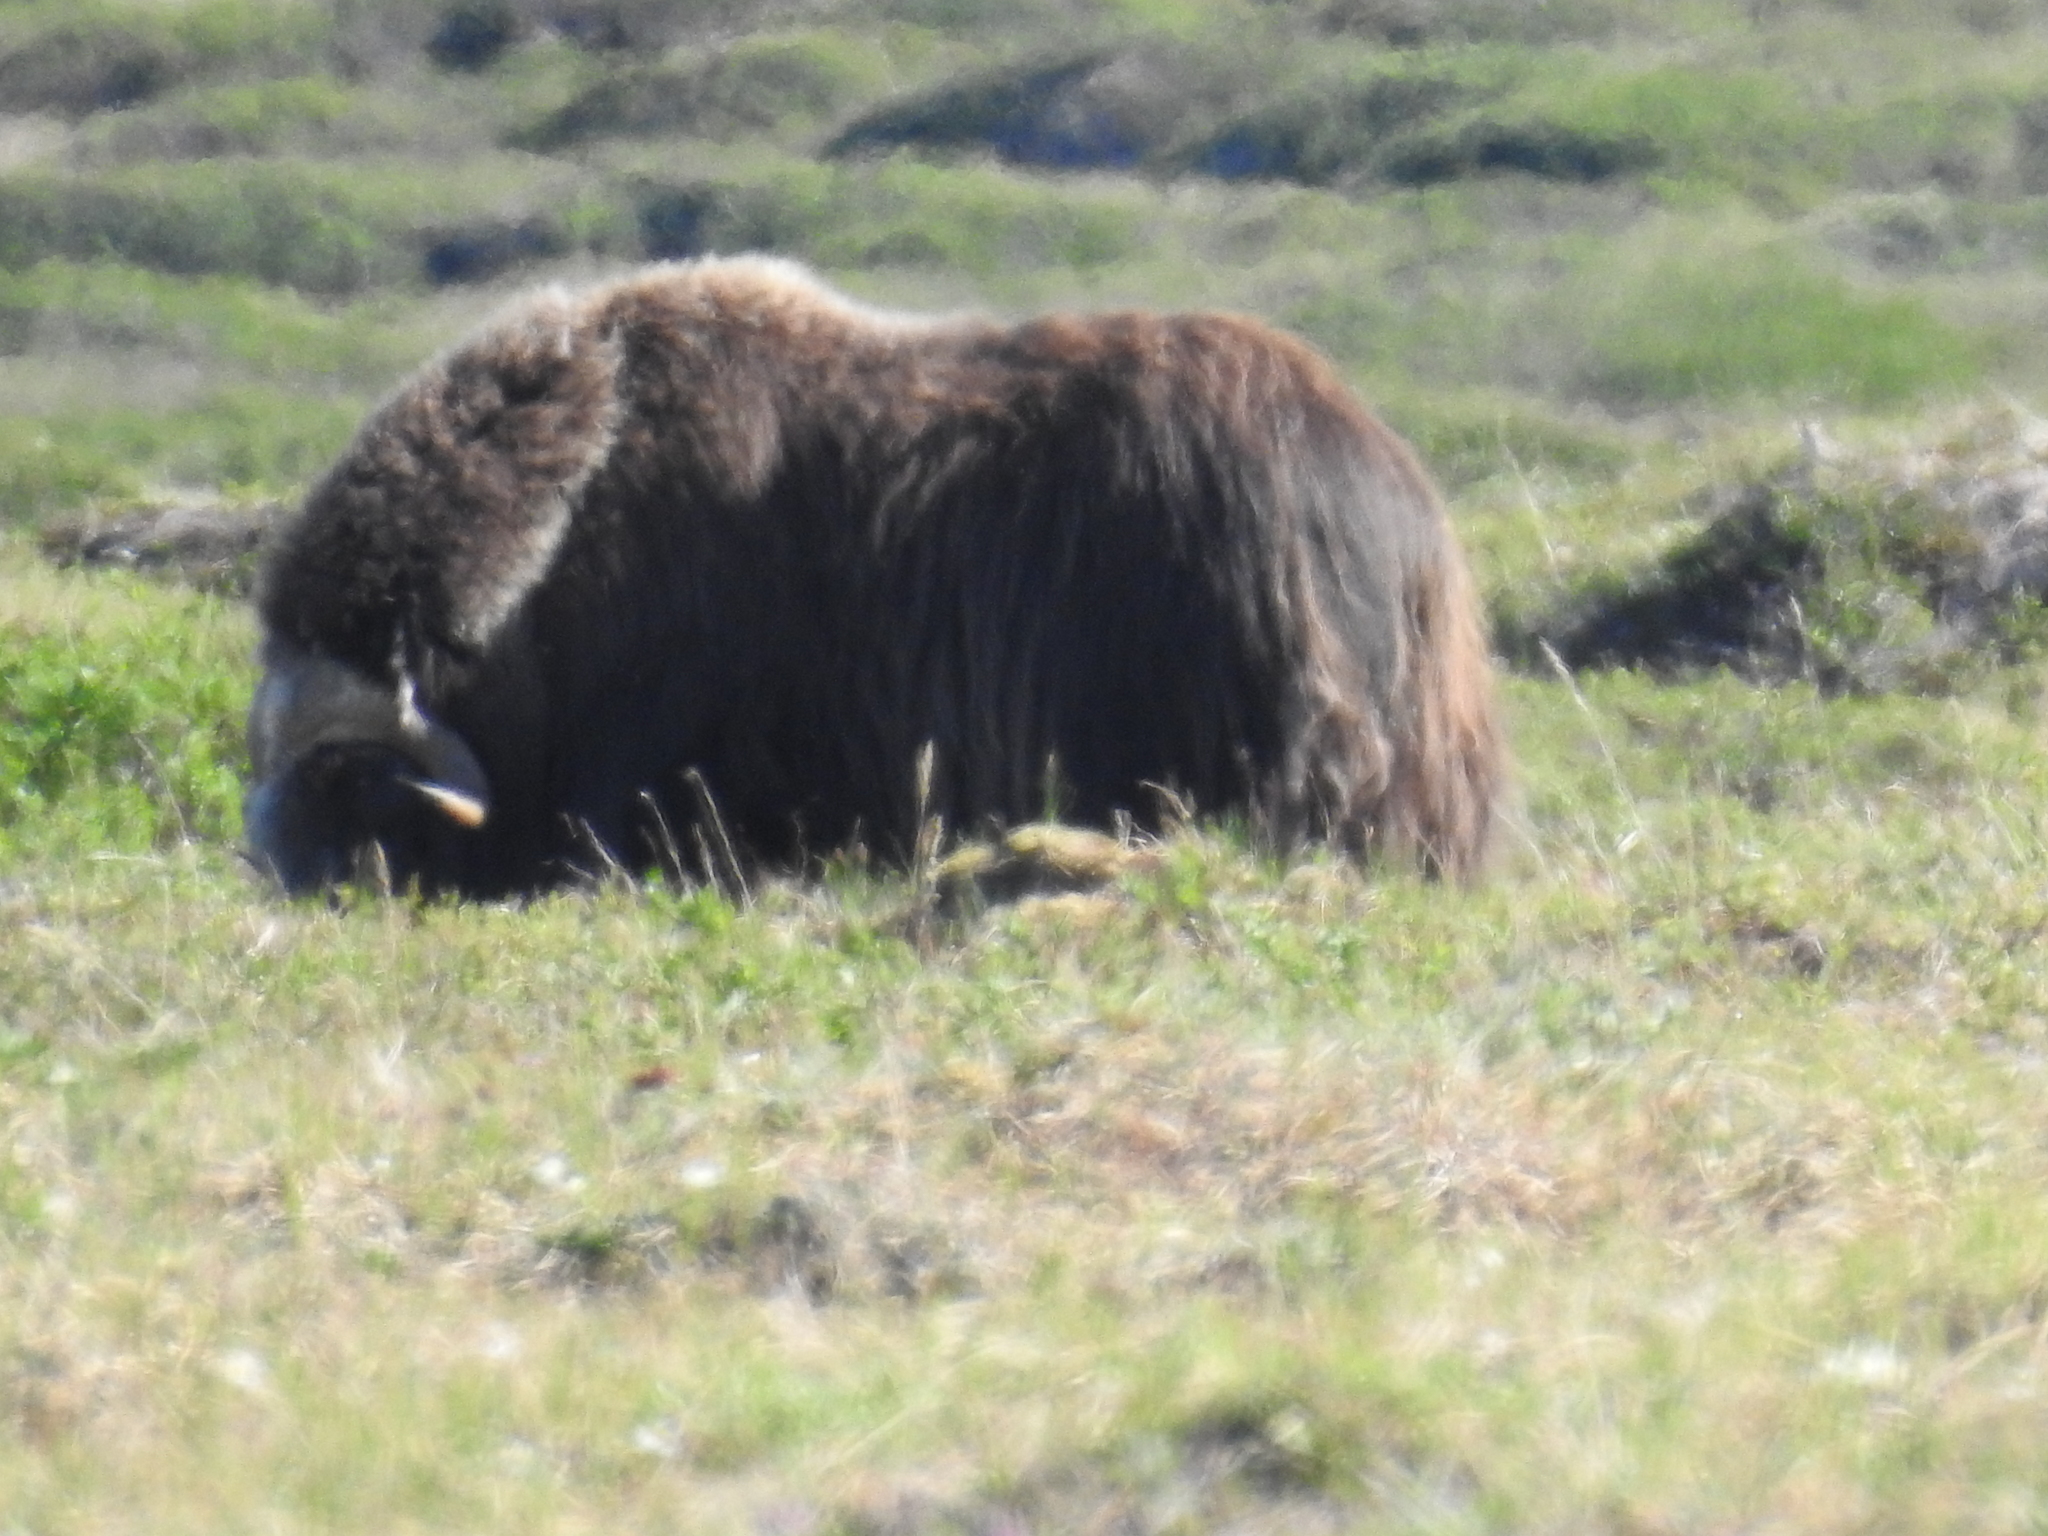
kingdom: Animalia
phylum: Chordata
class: Mammalia
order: Artiodactyla
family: Bovidae
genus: Ovibos
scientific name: Ovibos moschatus
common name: Muskox
